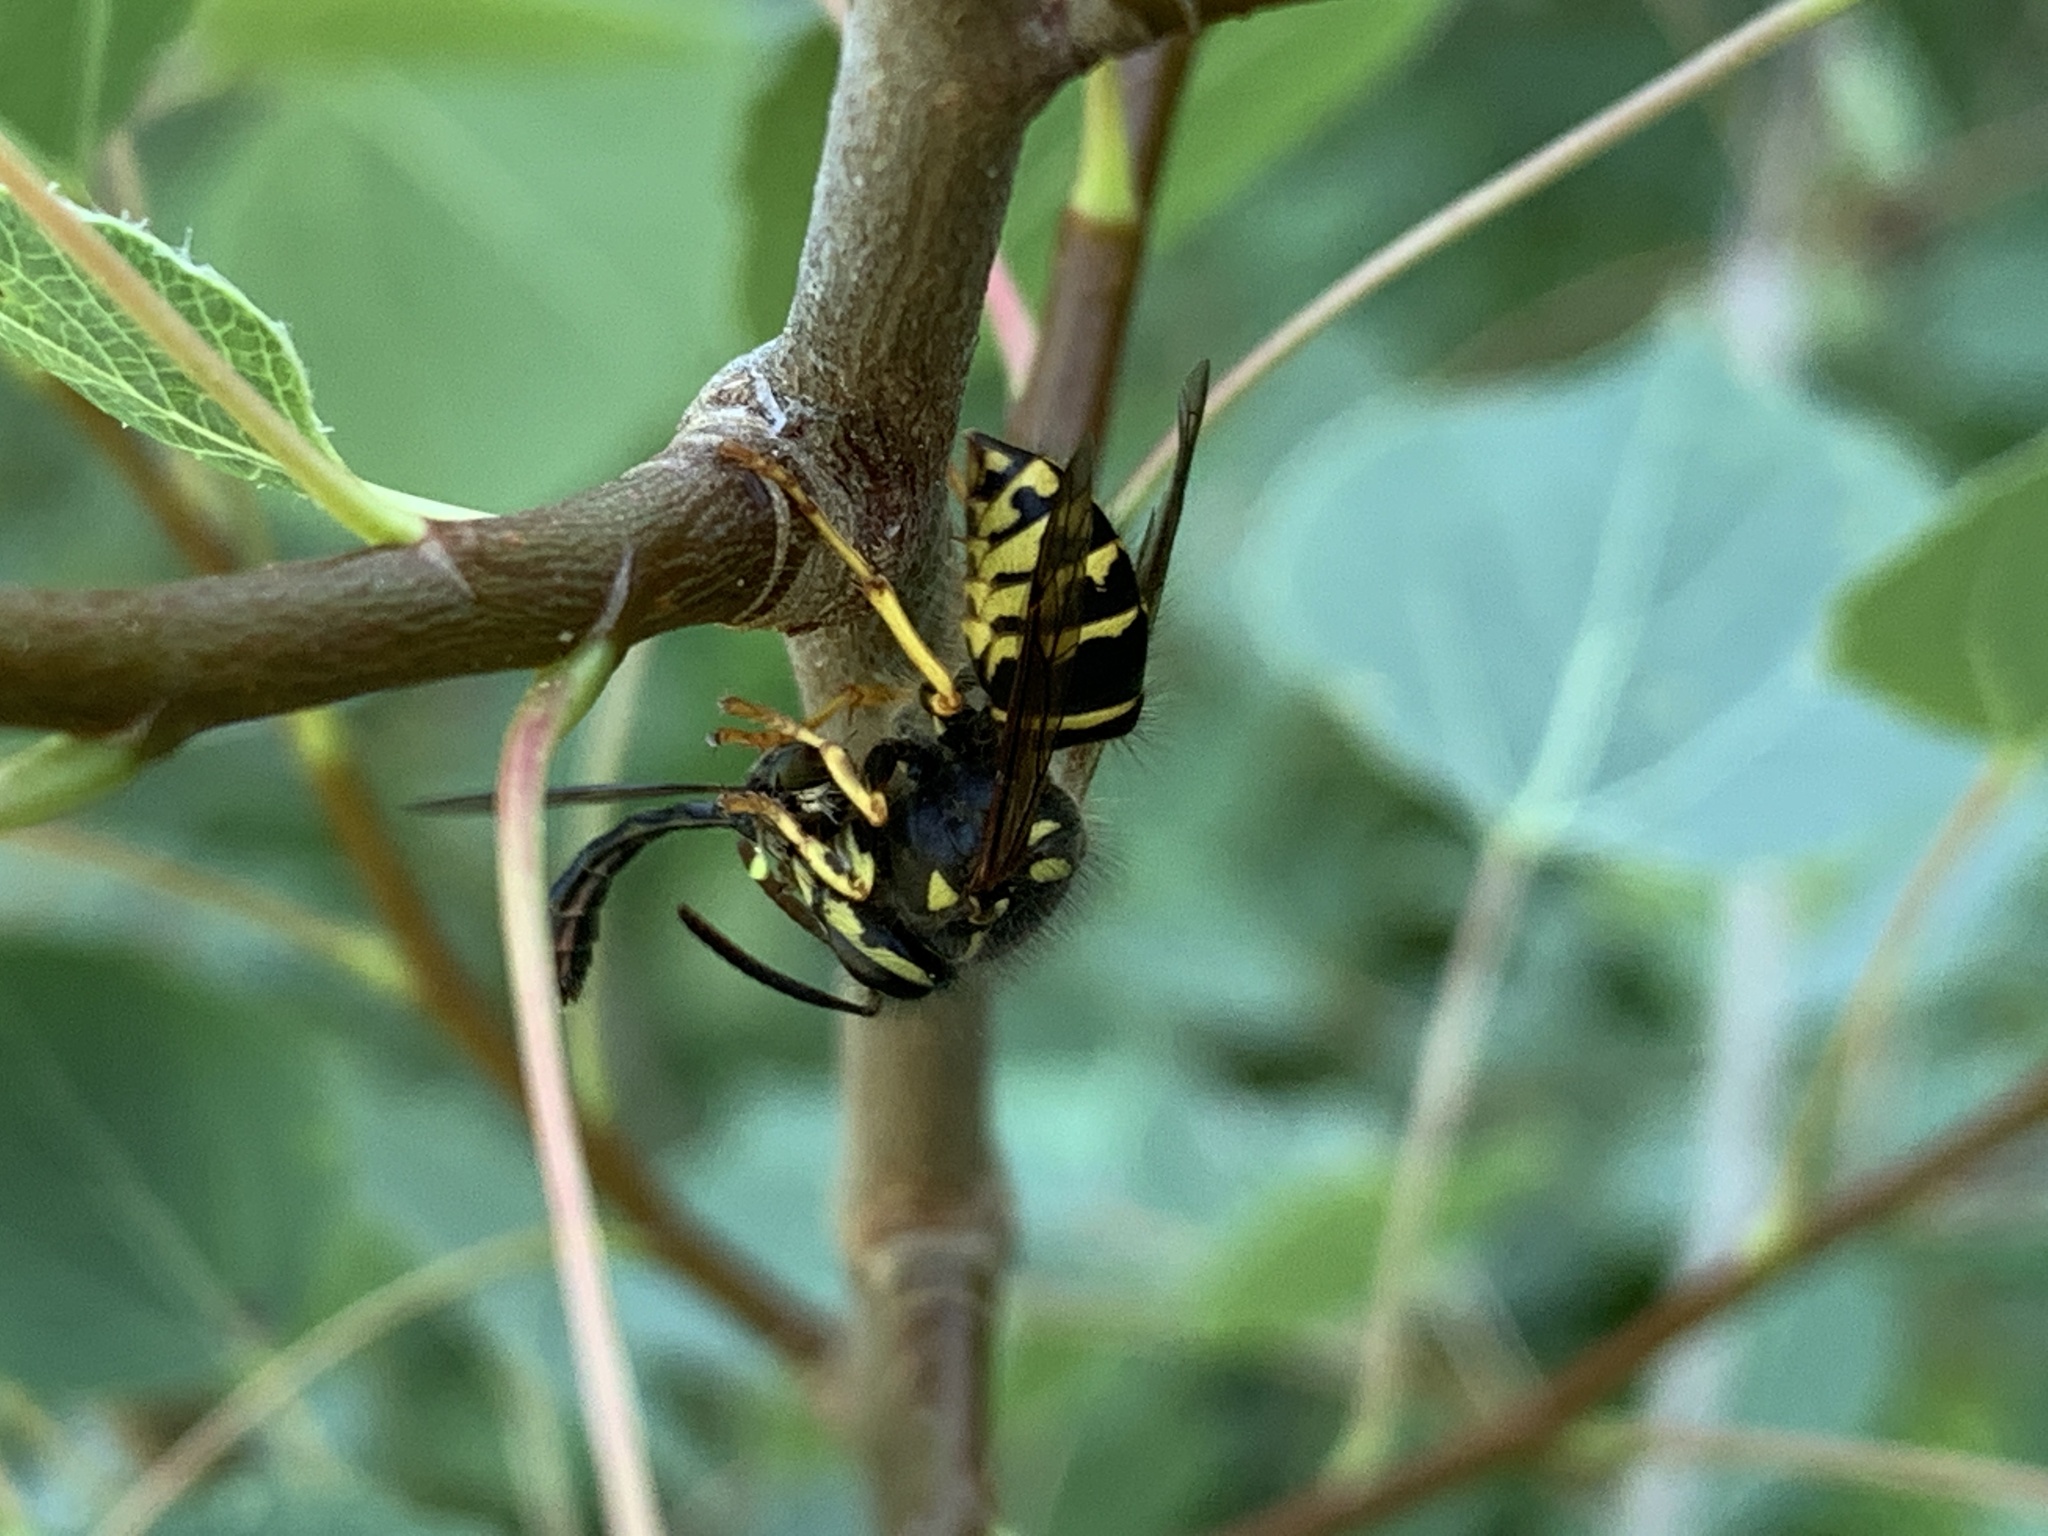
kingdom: Animalia
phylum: Arthropoda
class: Insecta
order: Hymenoptera
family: Vespidae
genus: Dolichovespula
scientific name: Dolichovespula arenaria
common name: Aerial yellowjacket
